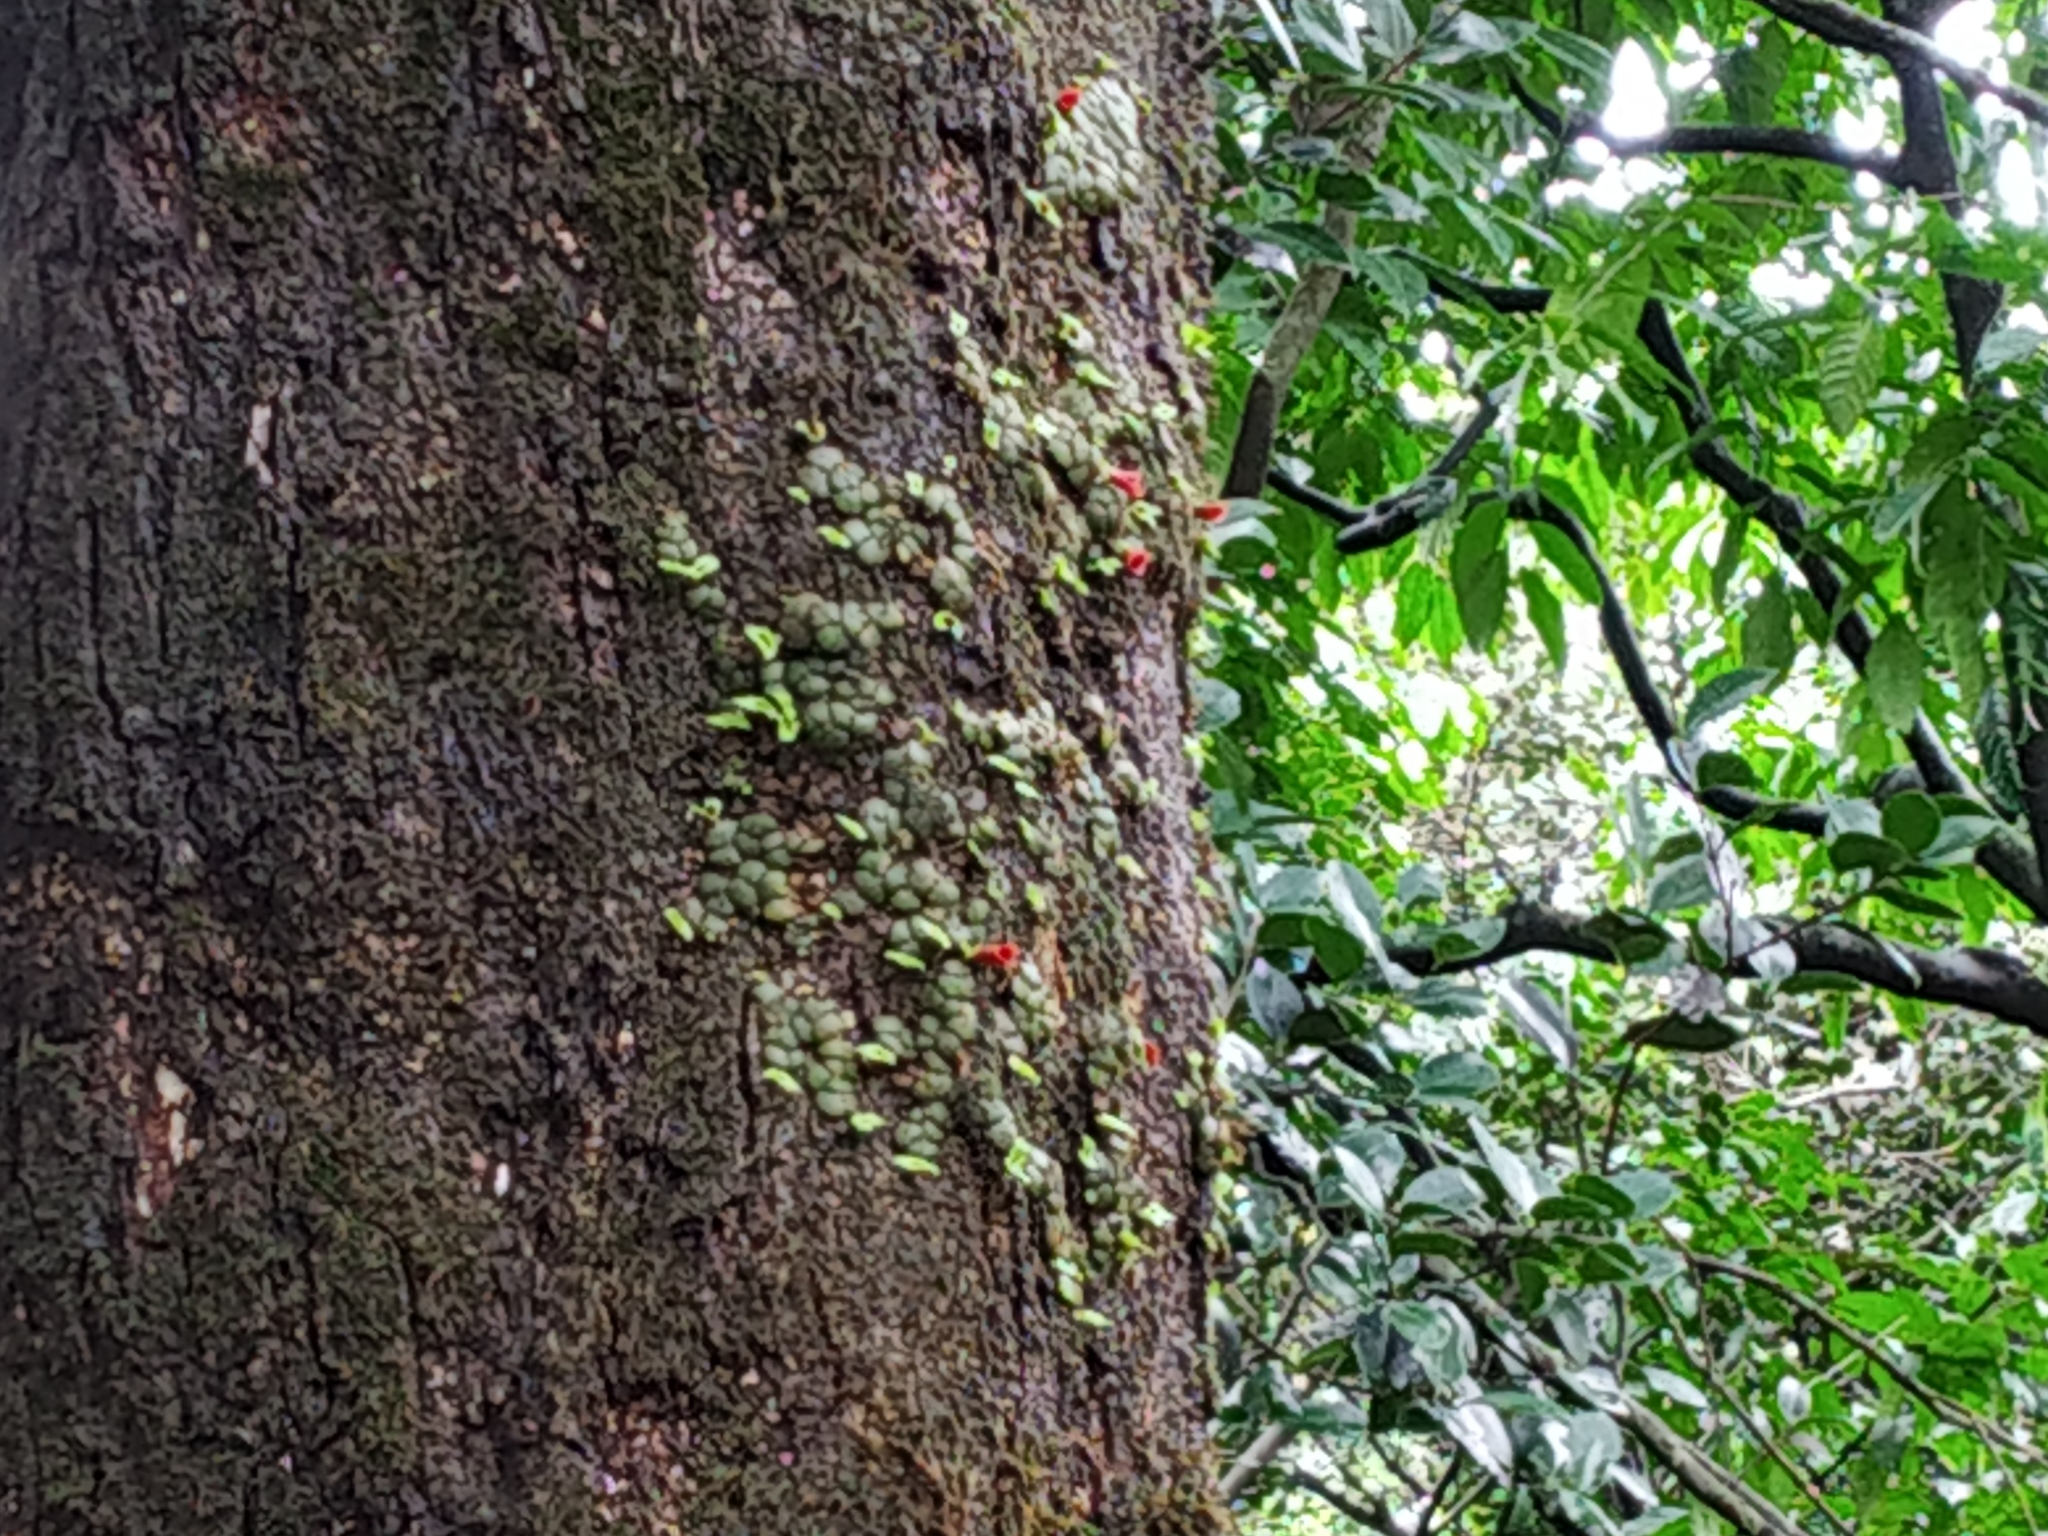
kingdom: Plantae
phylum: Tracheophyta
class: Liliopsida
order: Asparagales
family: Orchidaceae
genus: Porpax
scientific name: Porpax reticulata
